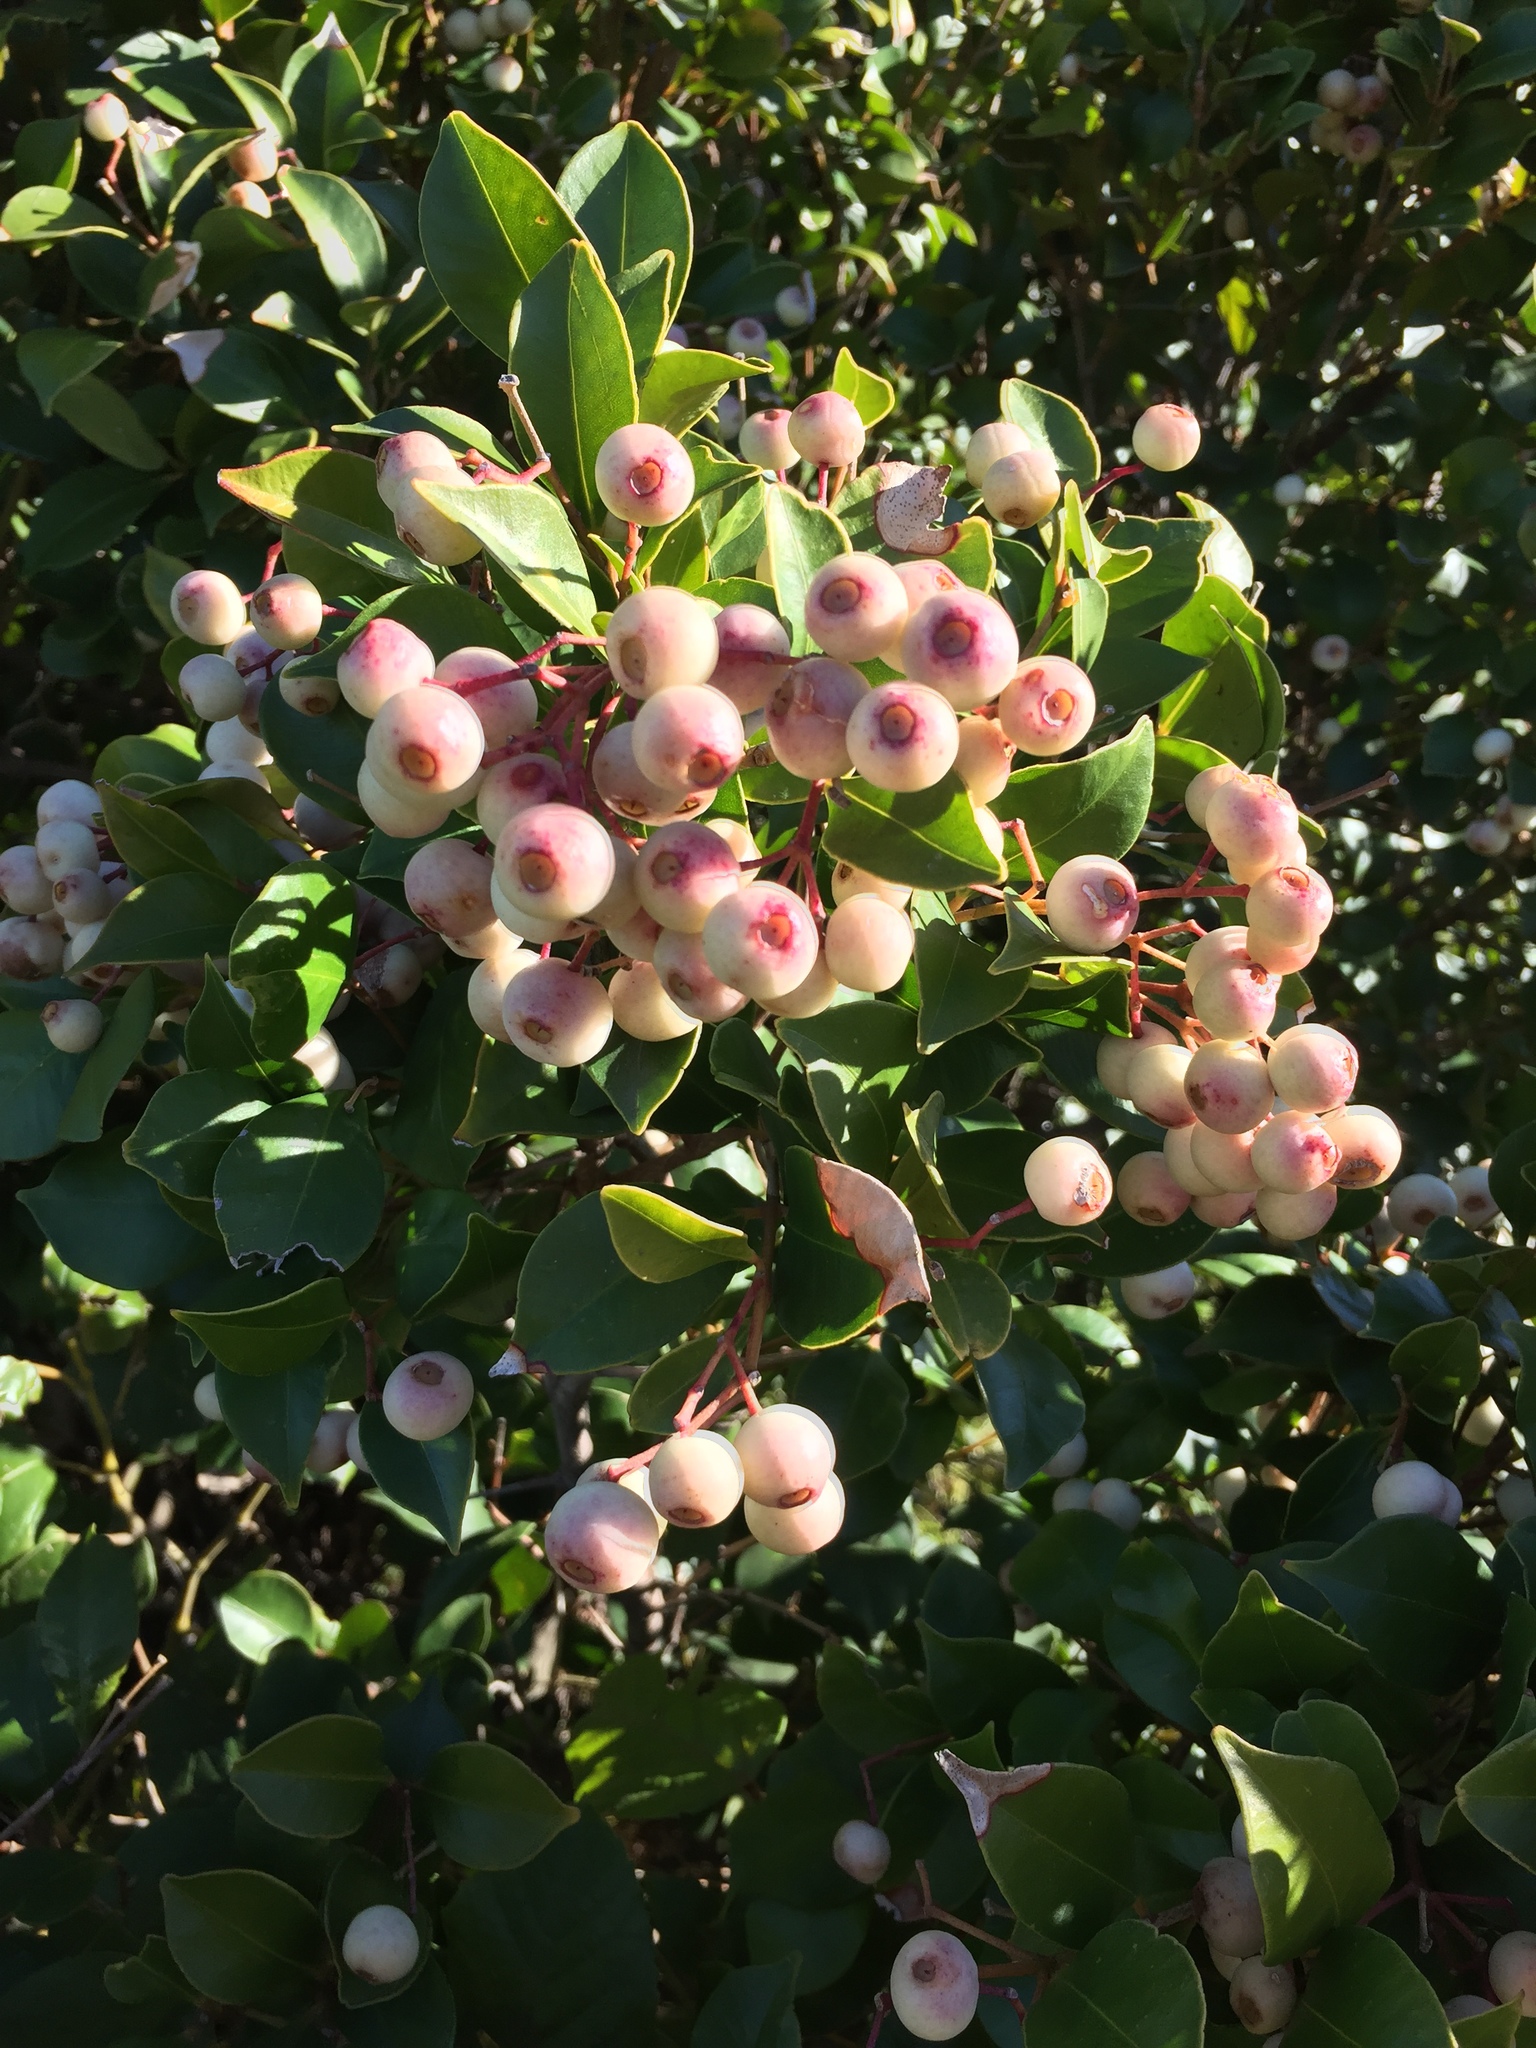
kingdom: Plantae
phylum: Tracheophyta
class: Magnoliopsida
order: Myrtales
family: Myrtaceae
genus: Syzygium
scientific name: Syzygium smithii
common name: Lilly-pilly
